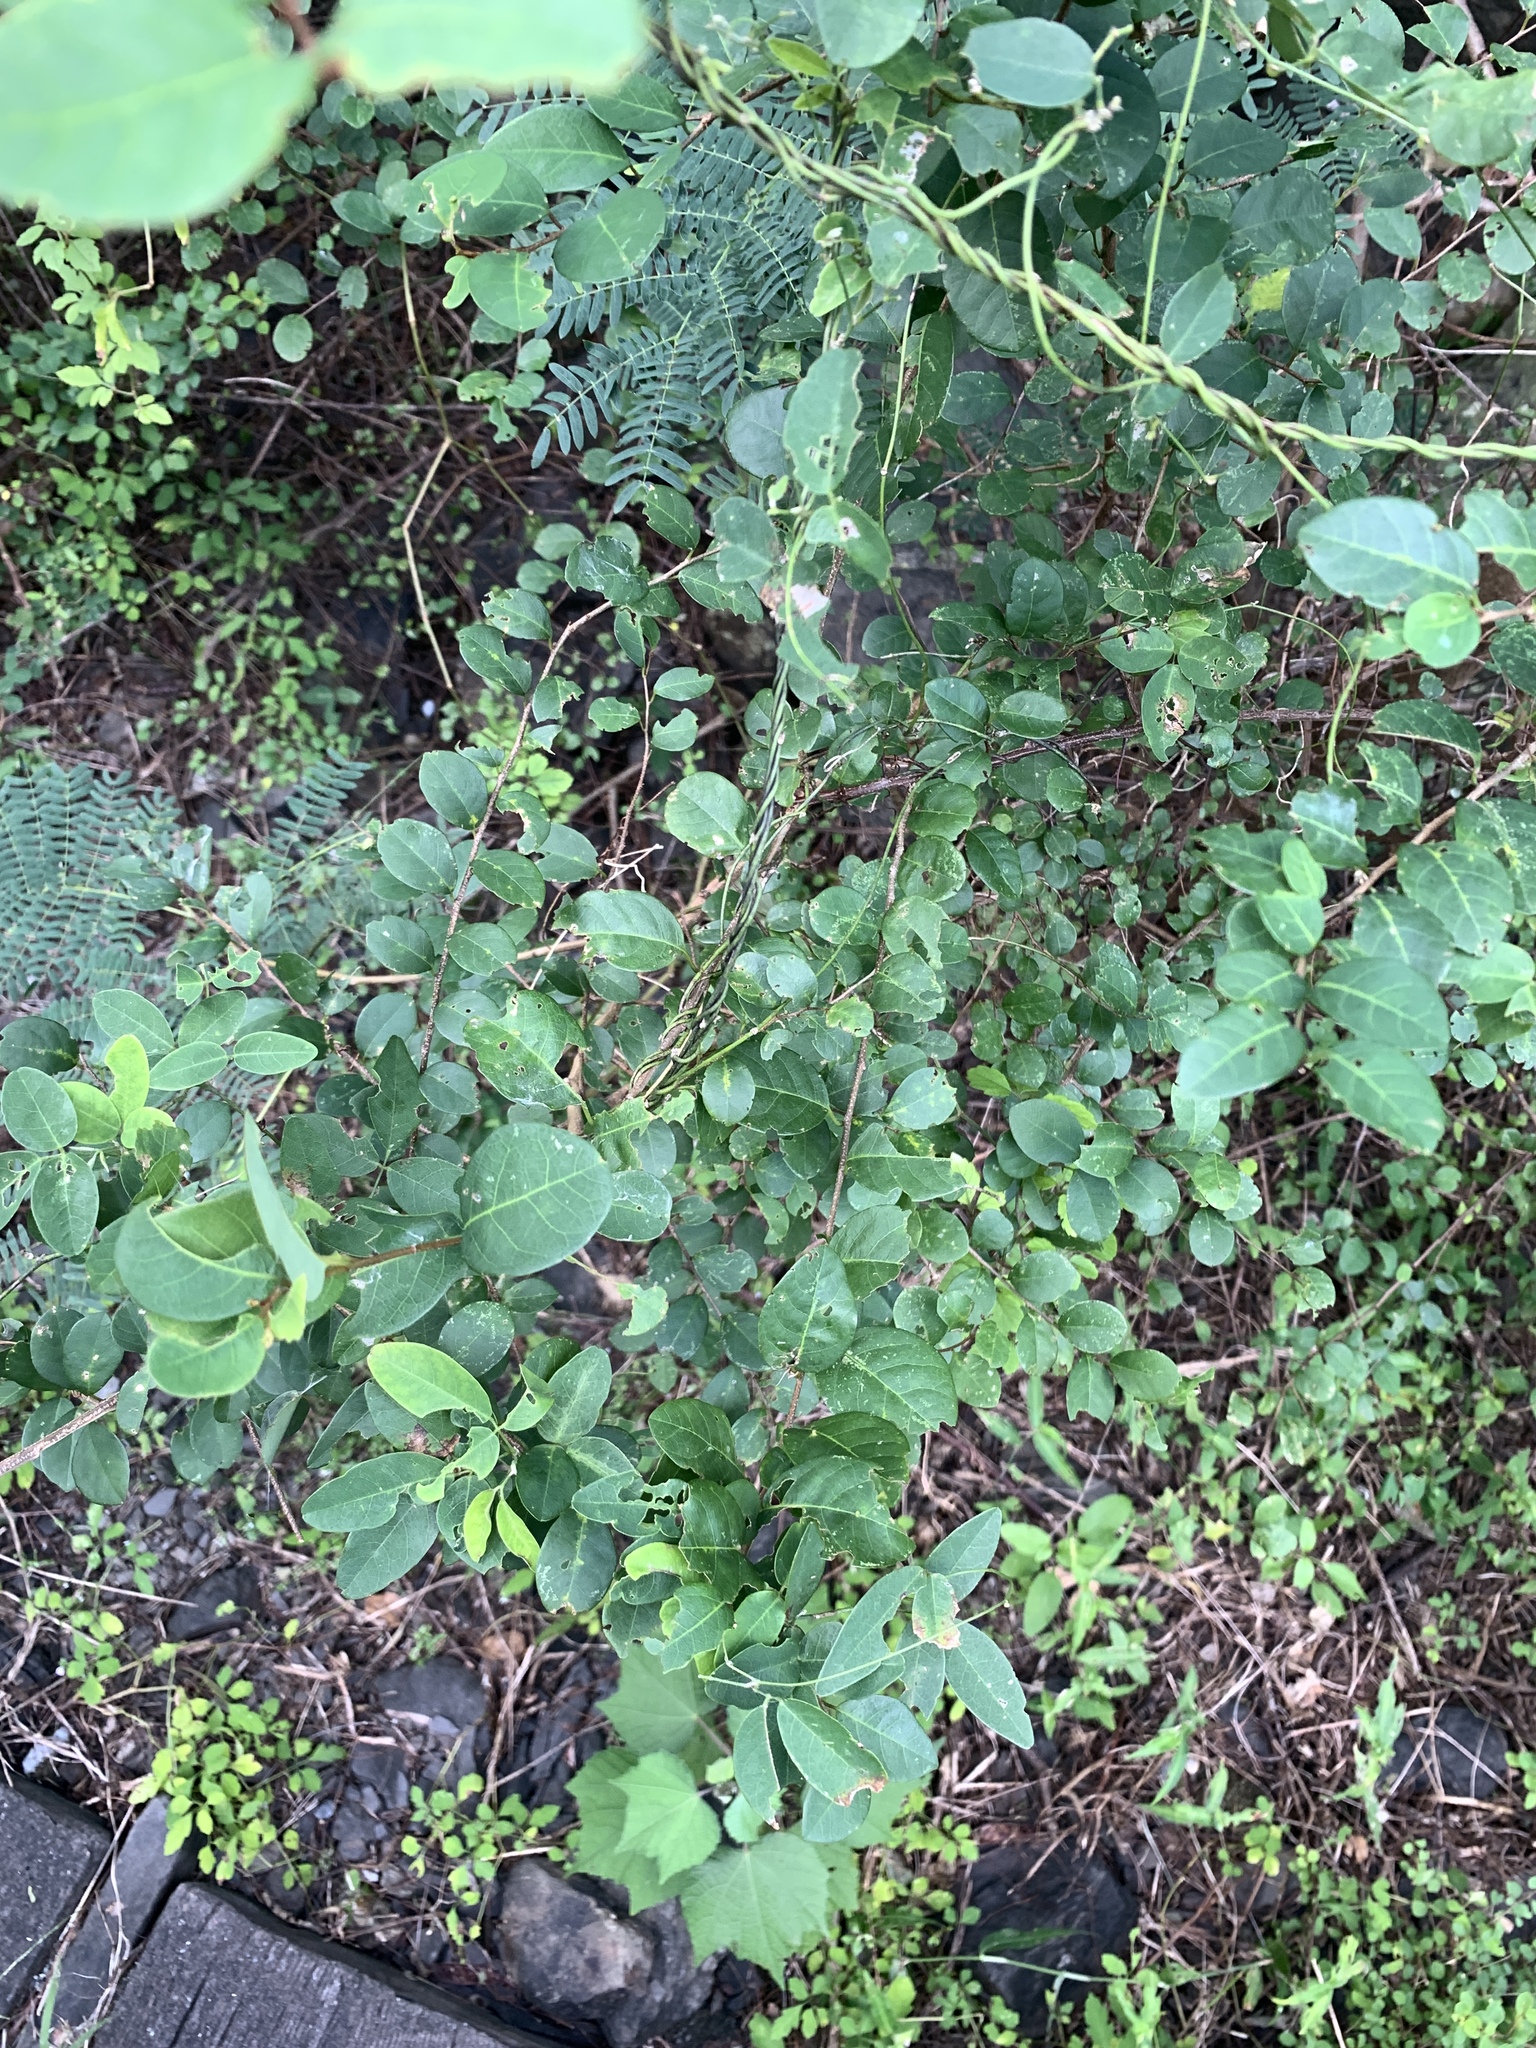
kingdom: Plantae
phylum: Tracheophyta
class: Magnoliopsida
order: Malpighiales
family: Phyllanthaceae
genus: Flueggea
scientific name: Flueggea virosa
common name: Common bushweed
